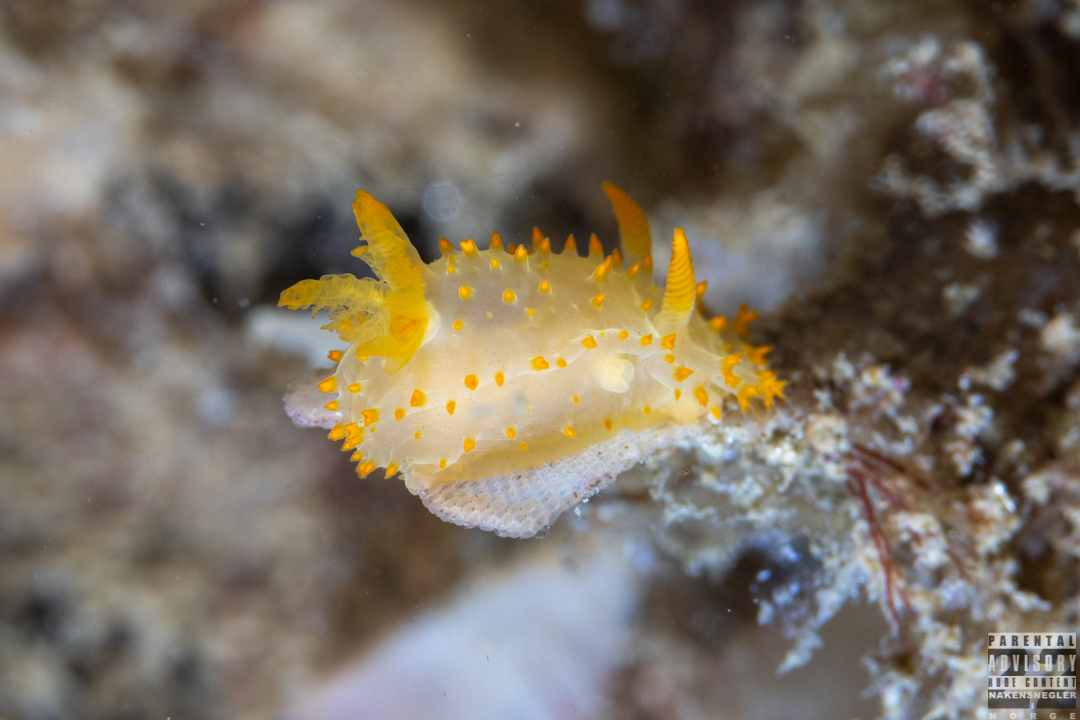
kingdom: Animalia
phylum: Mollusca
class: Gastropoda
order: Nudibranchia
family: Polyceridae
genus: Crimora
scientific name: Crimora papillata
